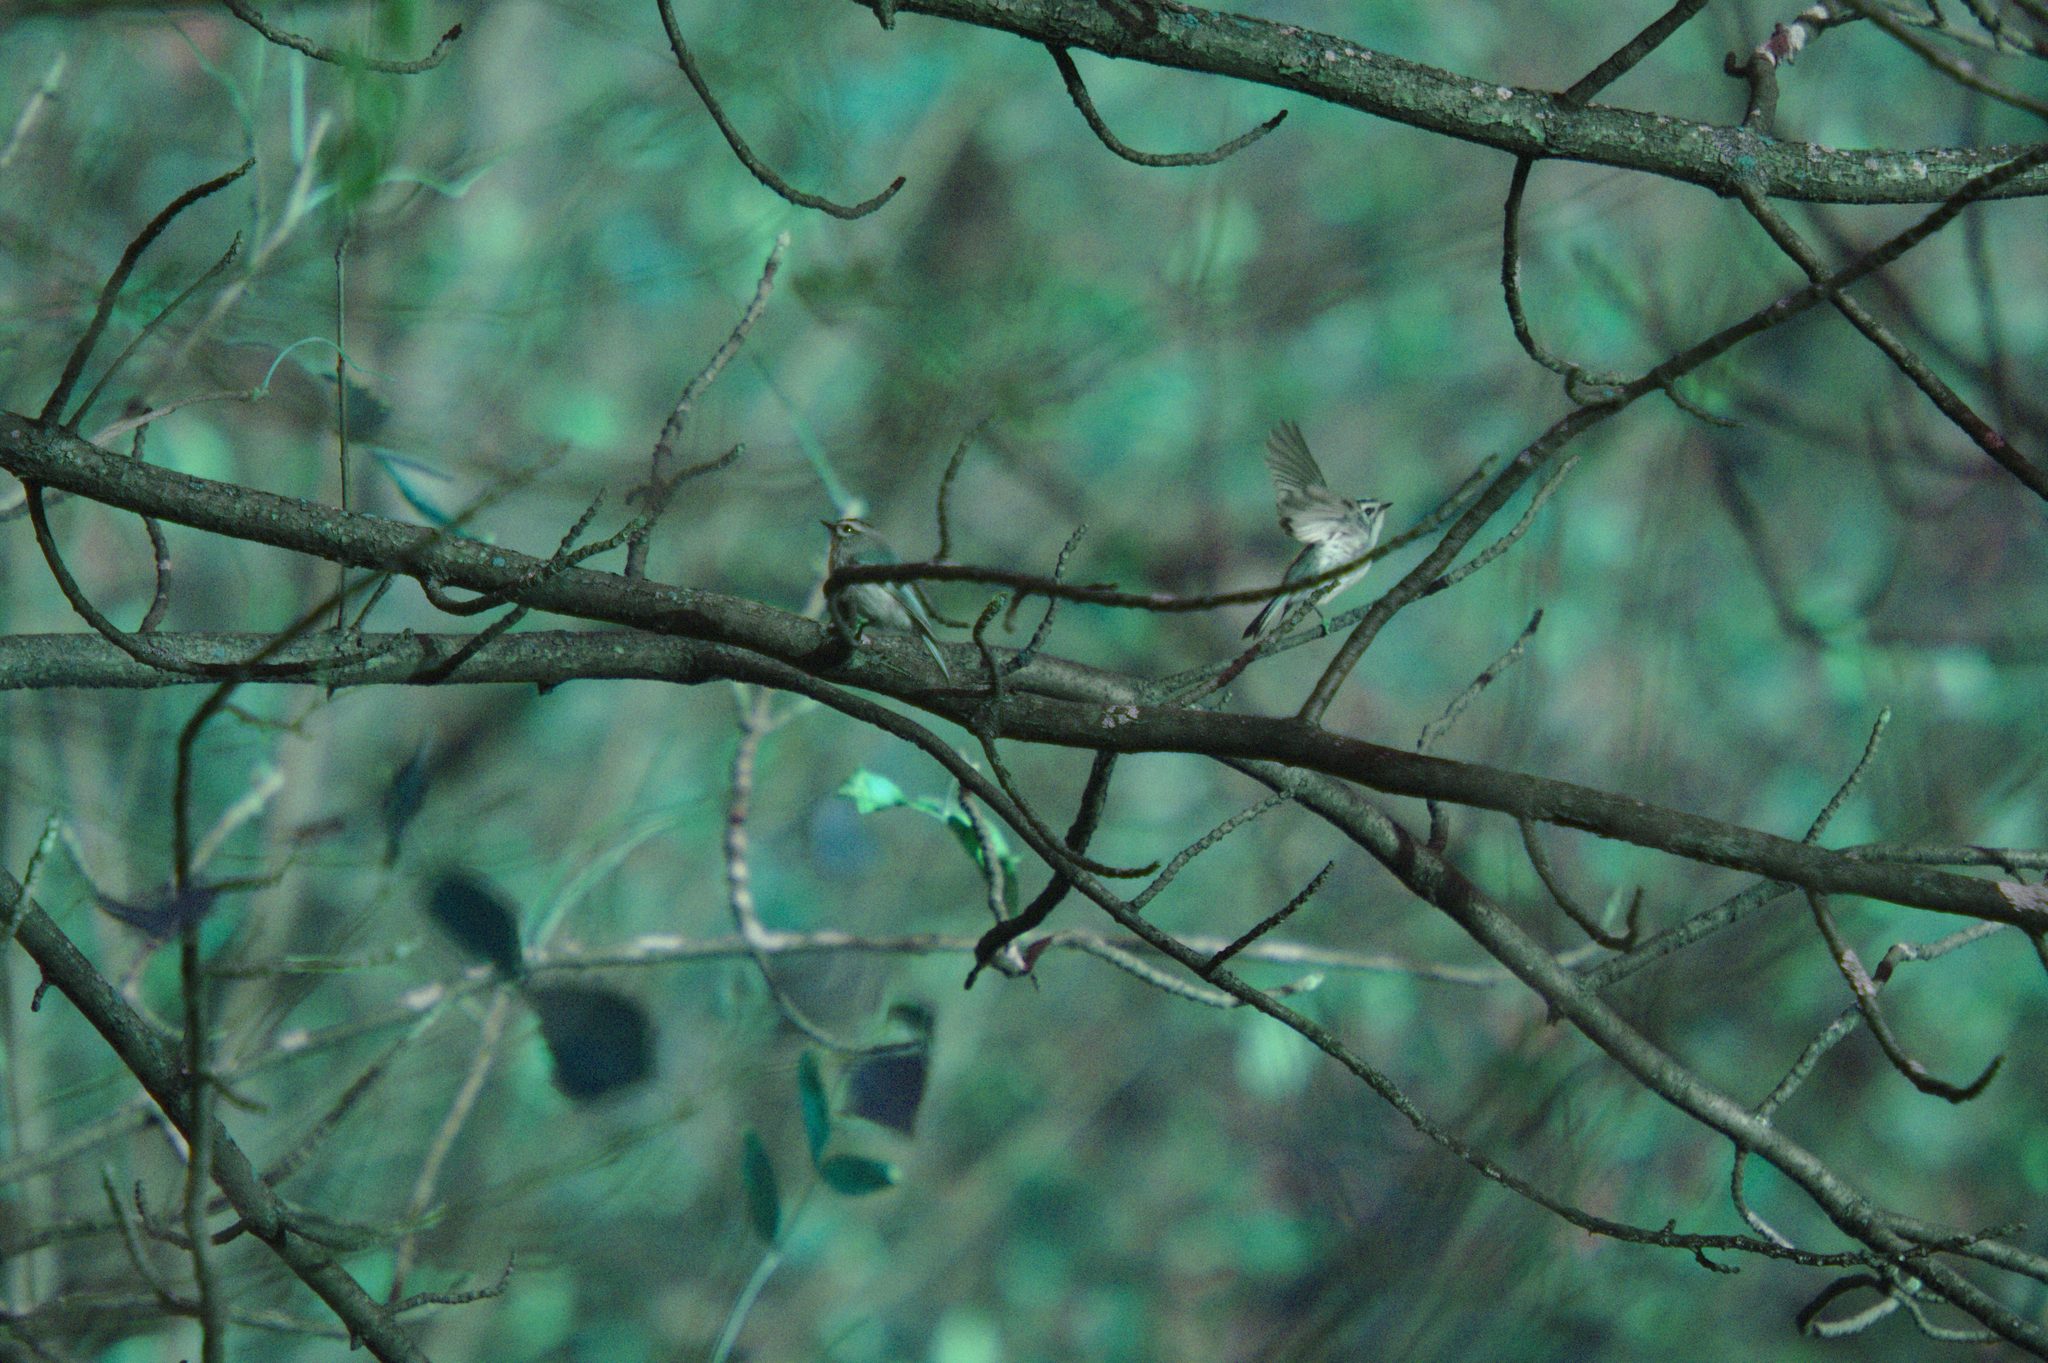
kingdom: Animalia
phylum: Chordata
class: Aves
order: Passeriformes
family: Regulidae
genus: Regulus
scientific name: Regulus satrapa
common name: Golden-crowned kinglet
